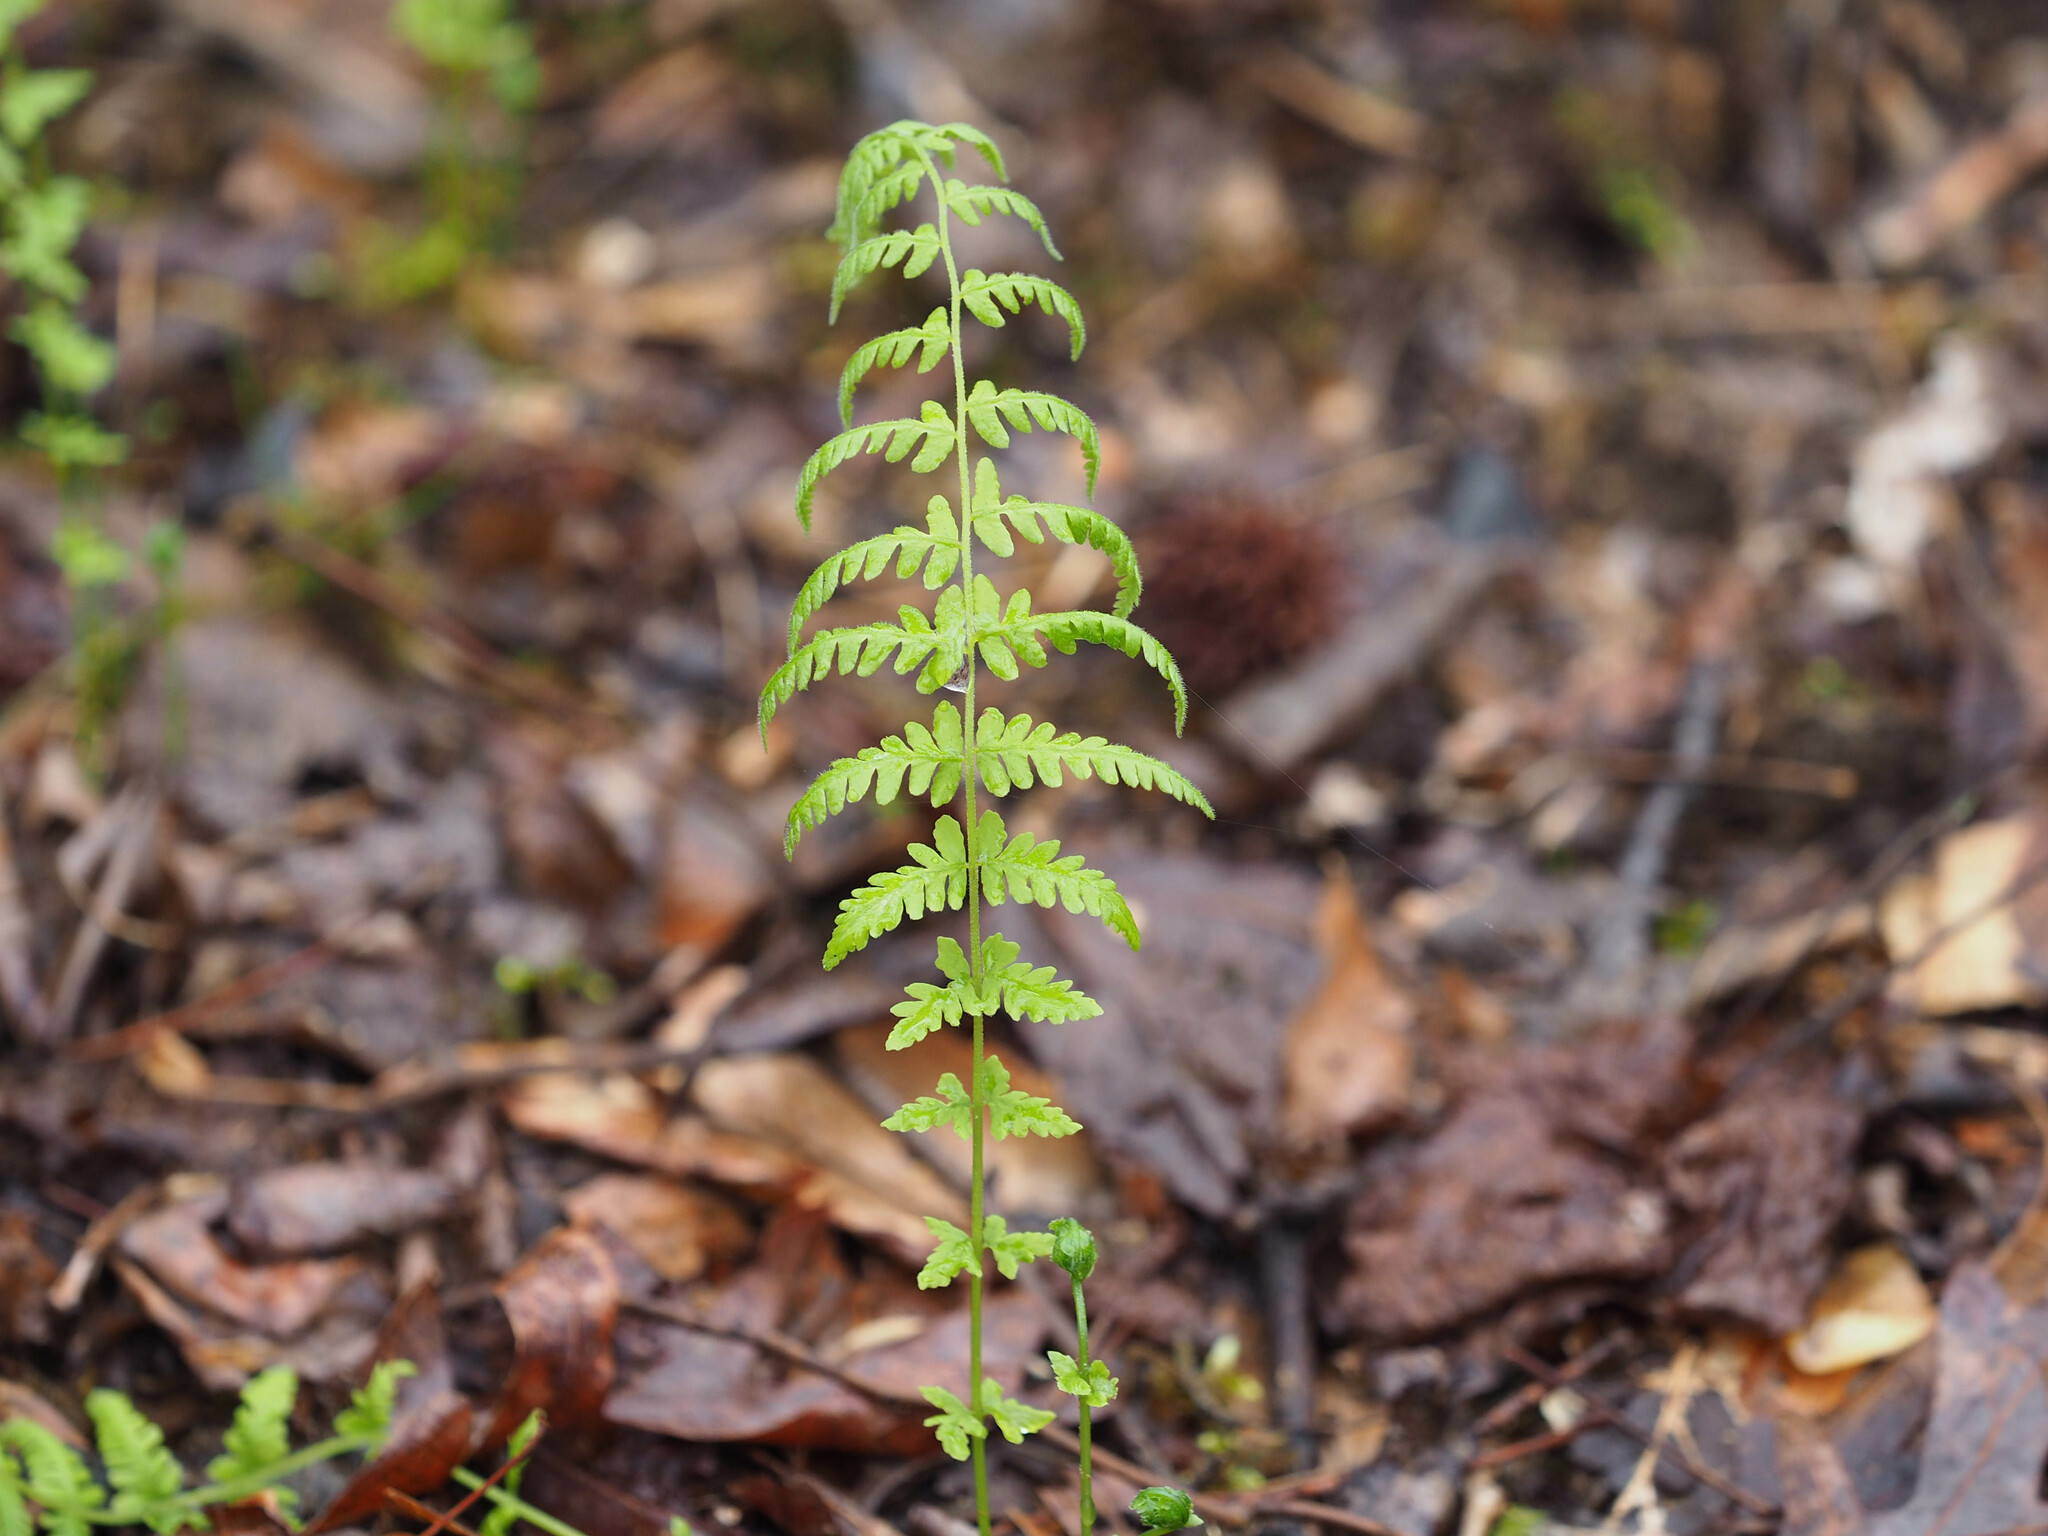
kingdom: Plantae
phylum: Tracheophyta
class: Polypodiopsida
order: Polypodiales
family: Thelypteridaceae
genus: Amauropelta
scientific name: Amauropelta noveboracensis
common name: New york fern
